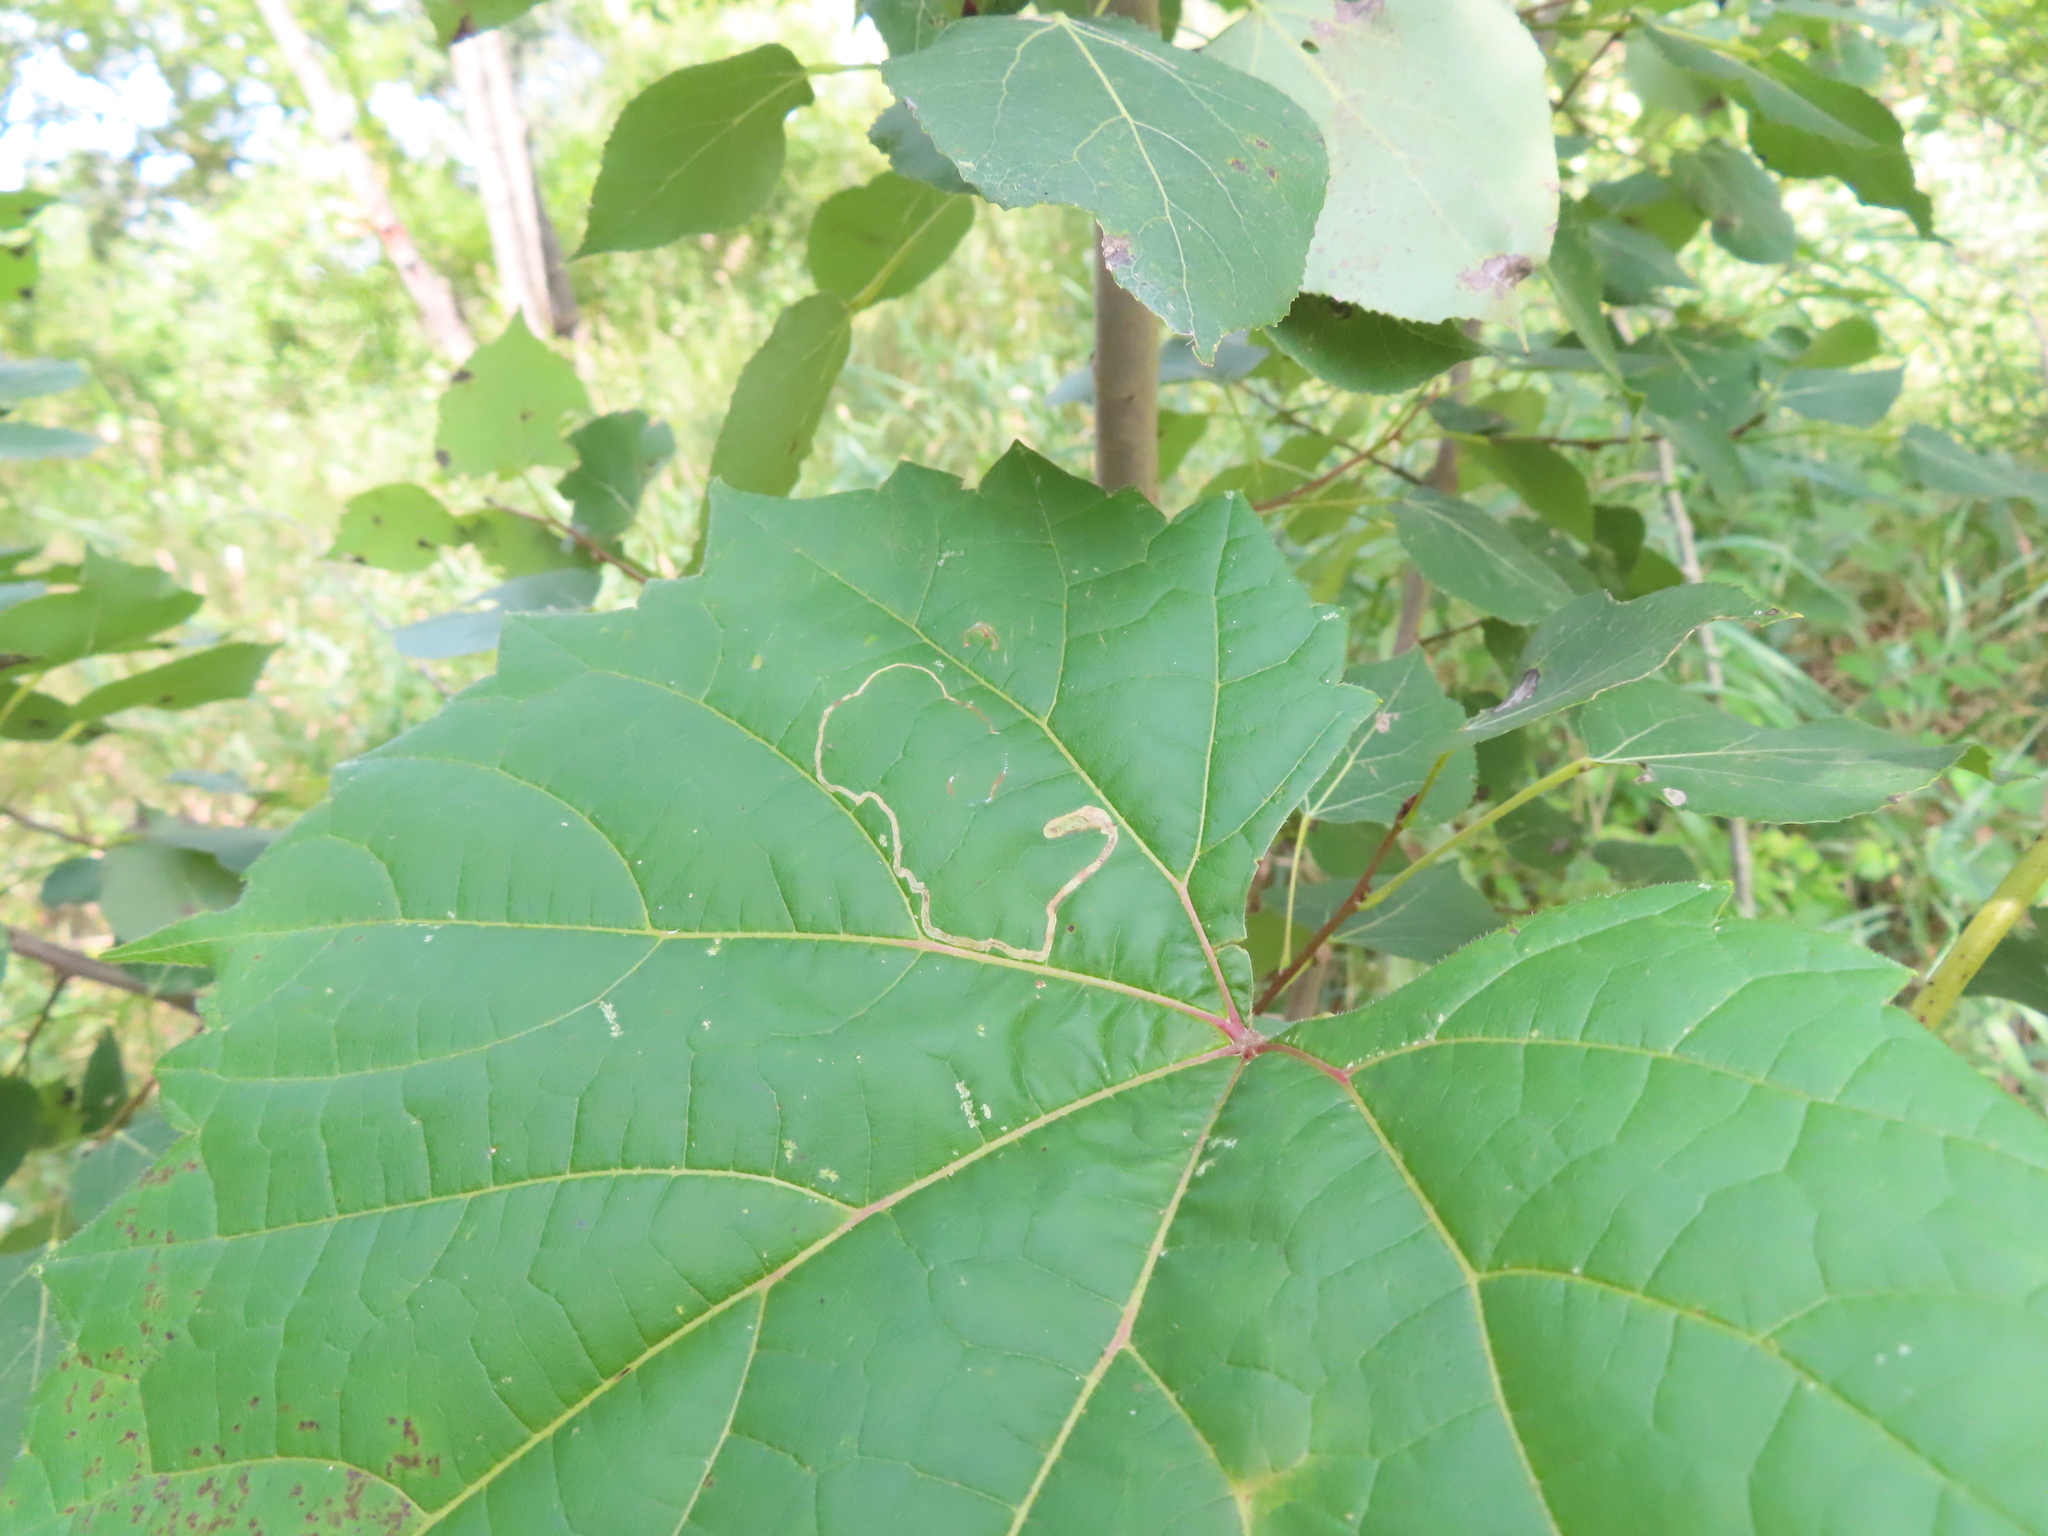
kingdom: Animalia
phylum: Arthropoda
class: Insecta
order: Lepidoptera
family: Gracillariidae
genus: Phyllocnistis
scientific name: Phyllocnistis vitifoliella
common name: Grape leaf-miner moth
